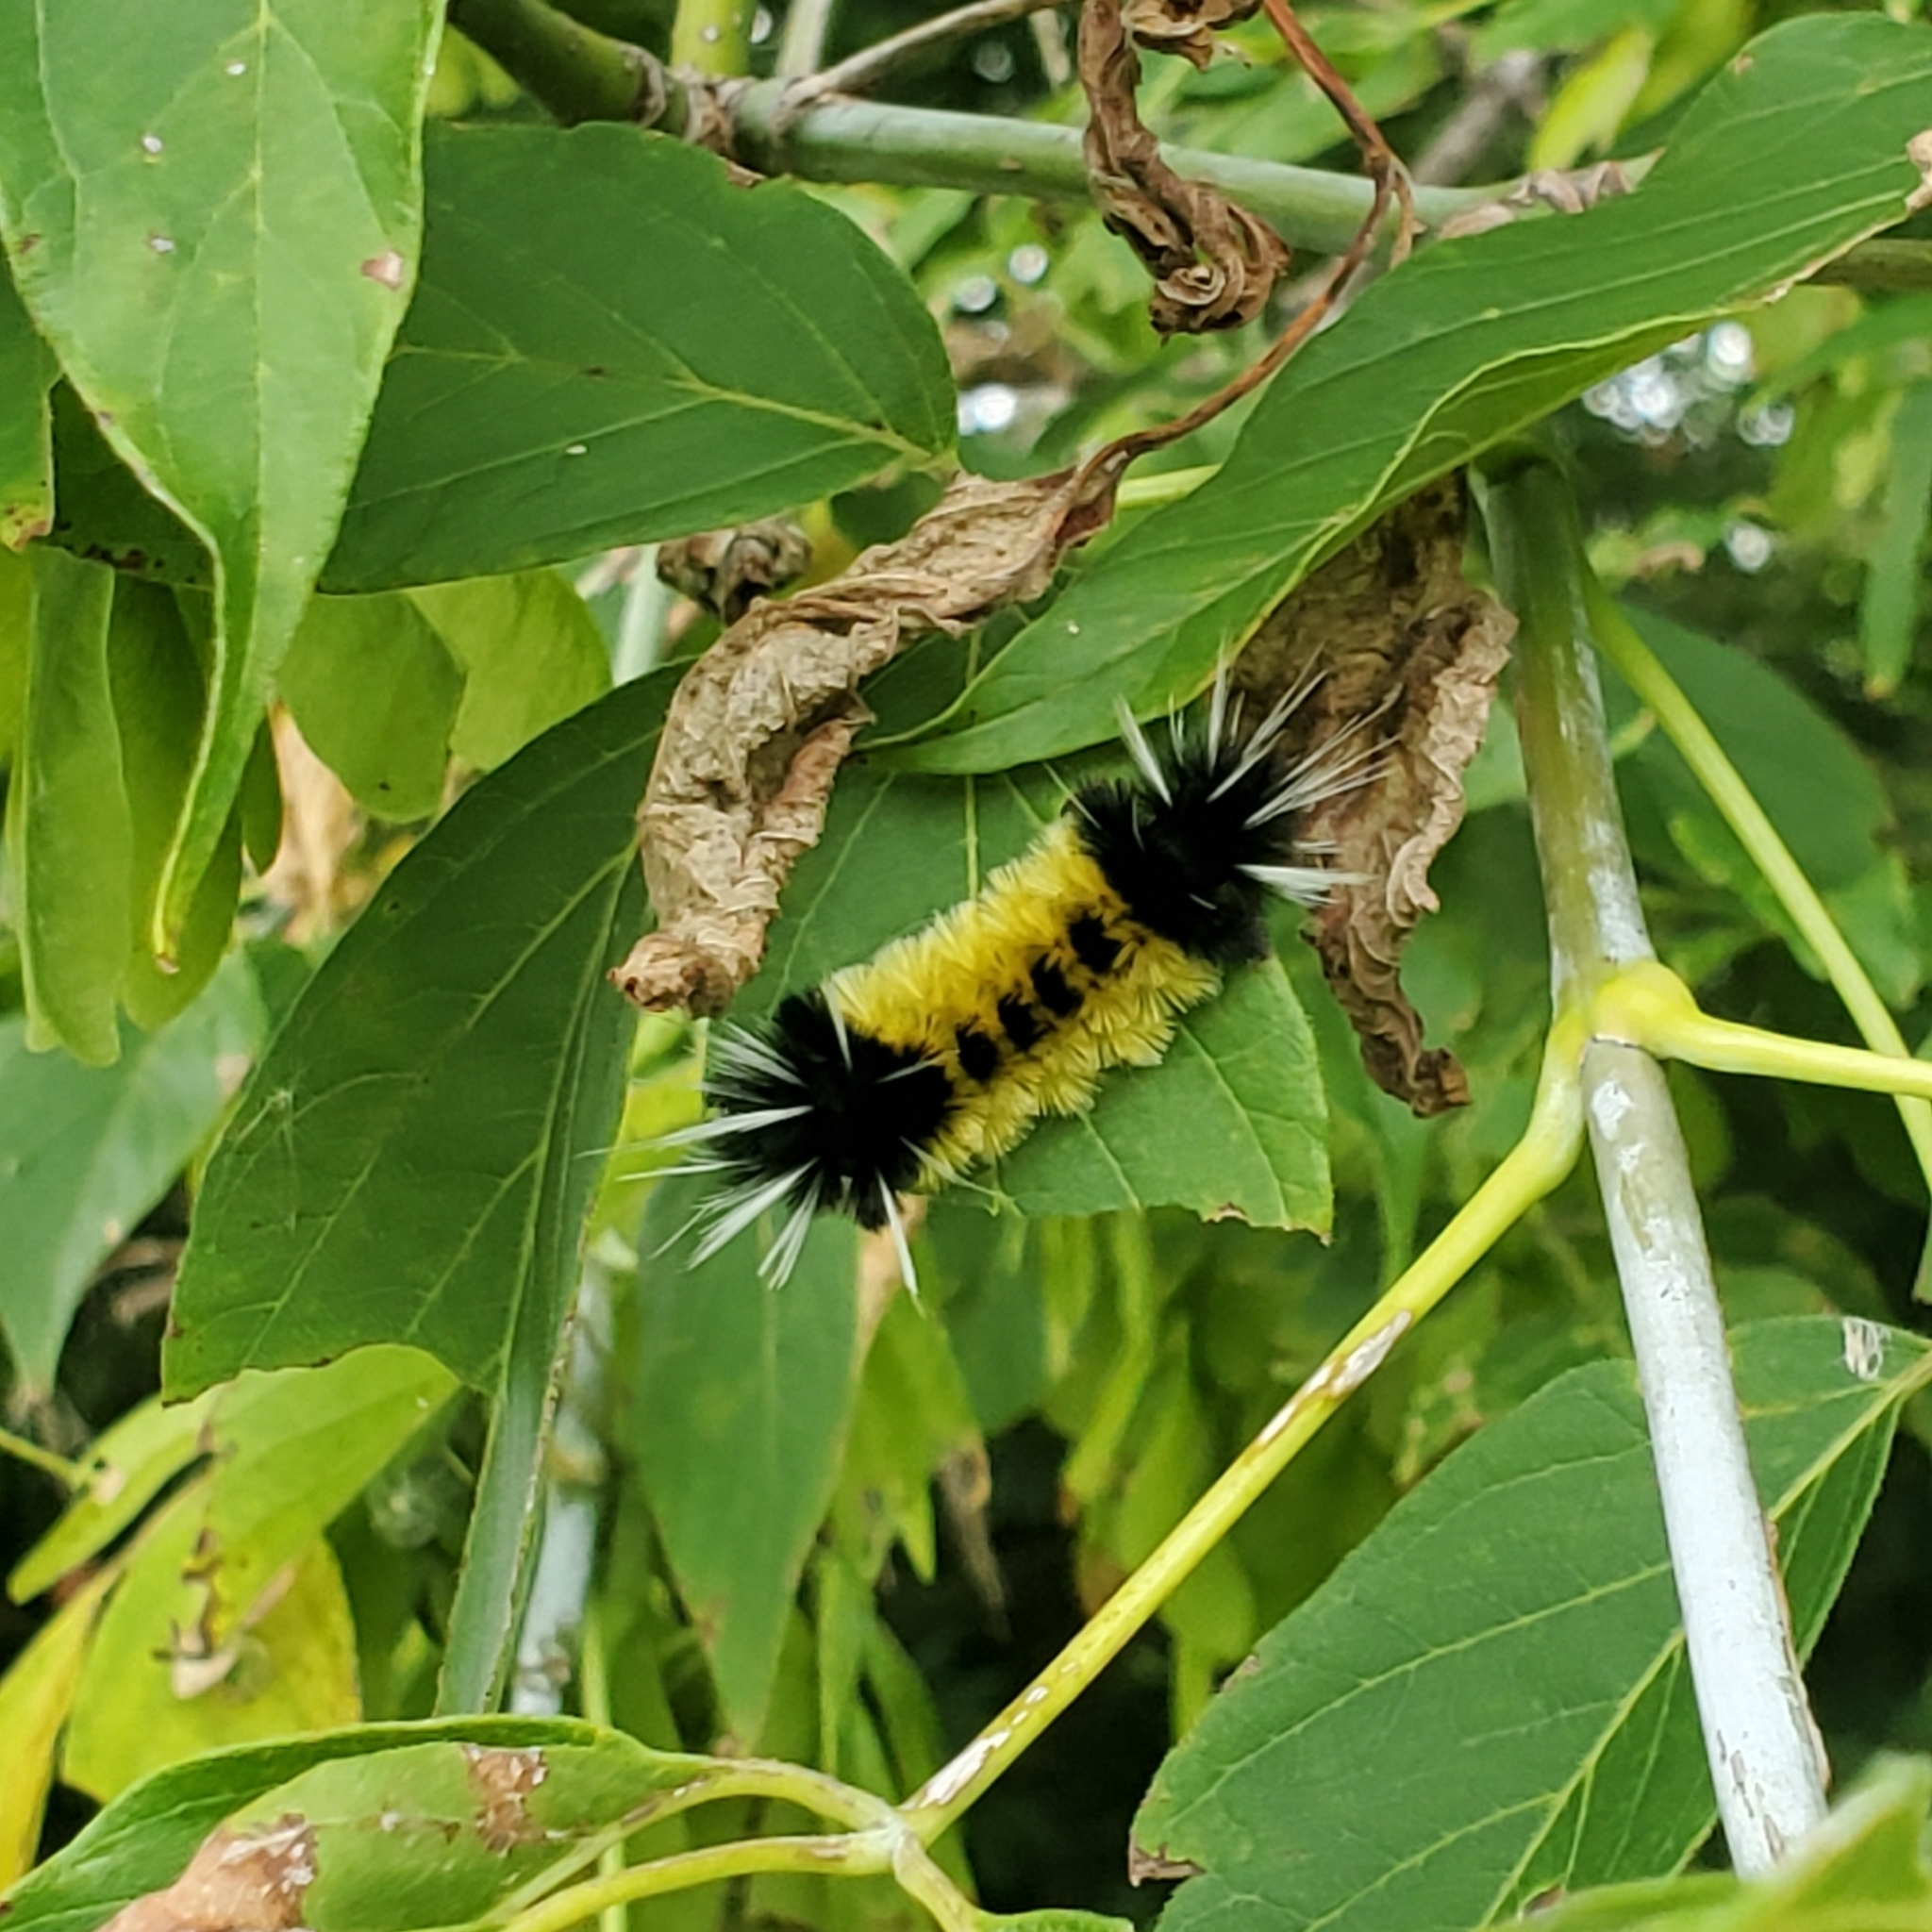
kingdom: Animalia
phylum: Arthropoda
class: Insecta
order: Lepidoptera
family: Erebidae
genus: Lophocampa
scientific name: Lophocampa maculata
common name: Spotted tussock moth
